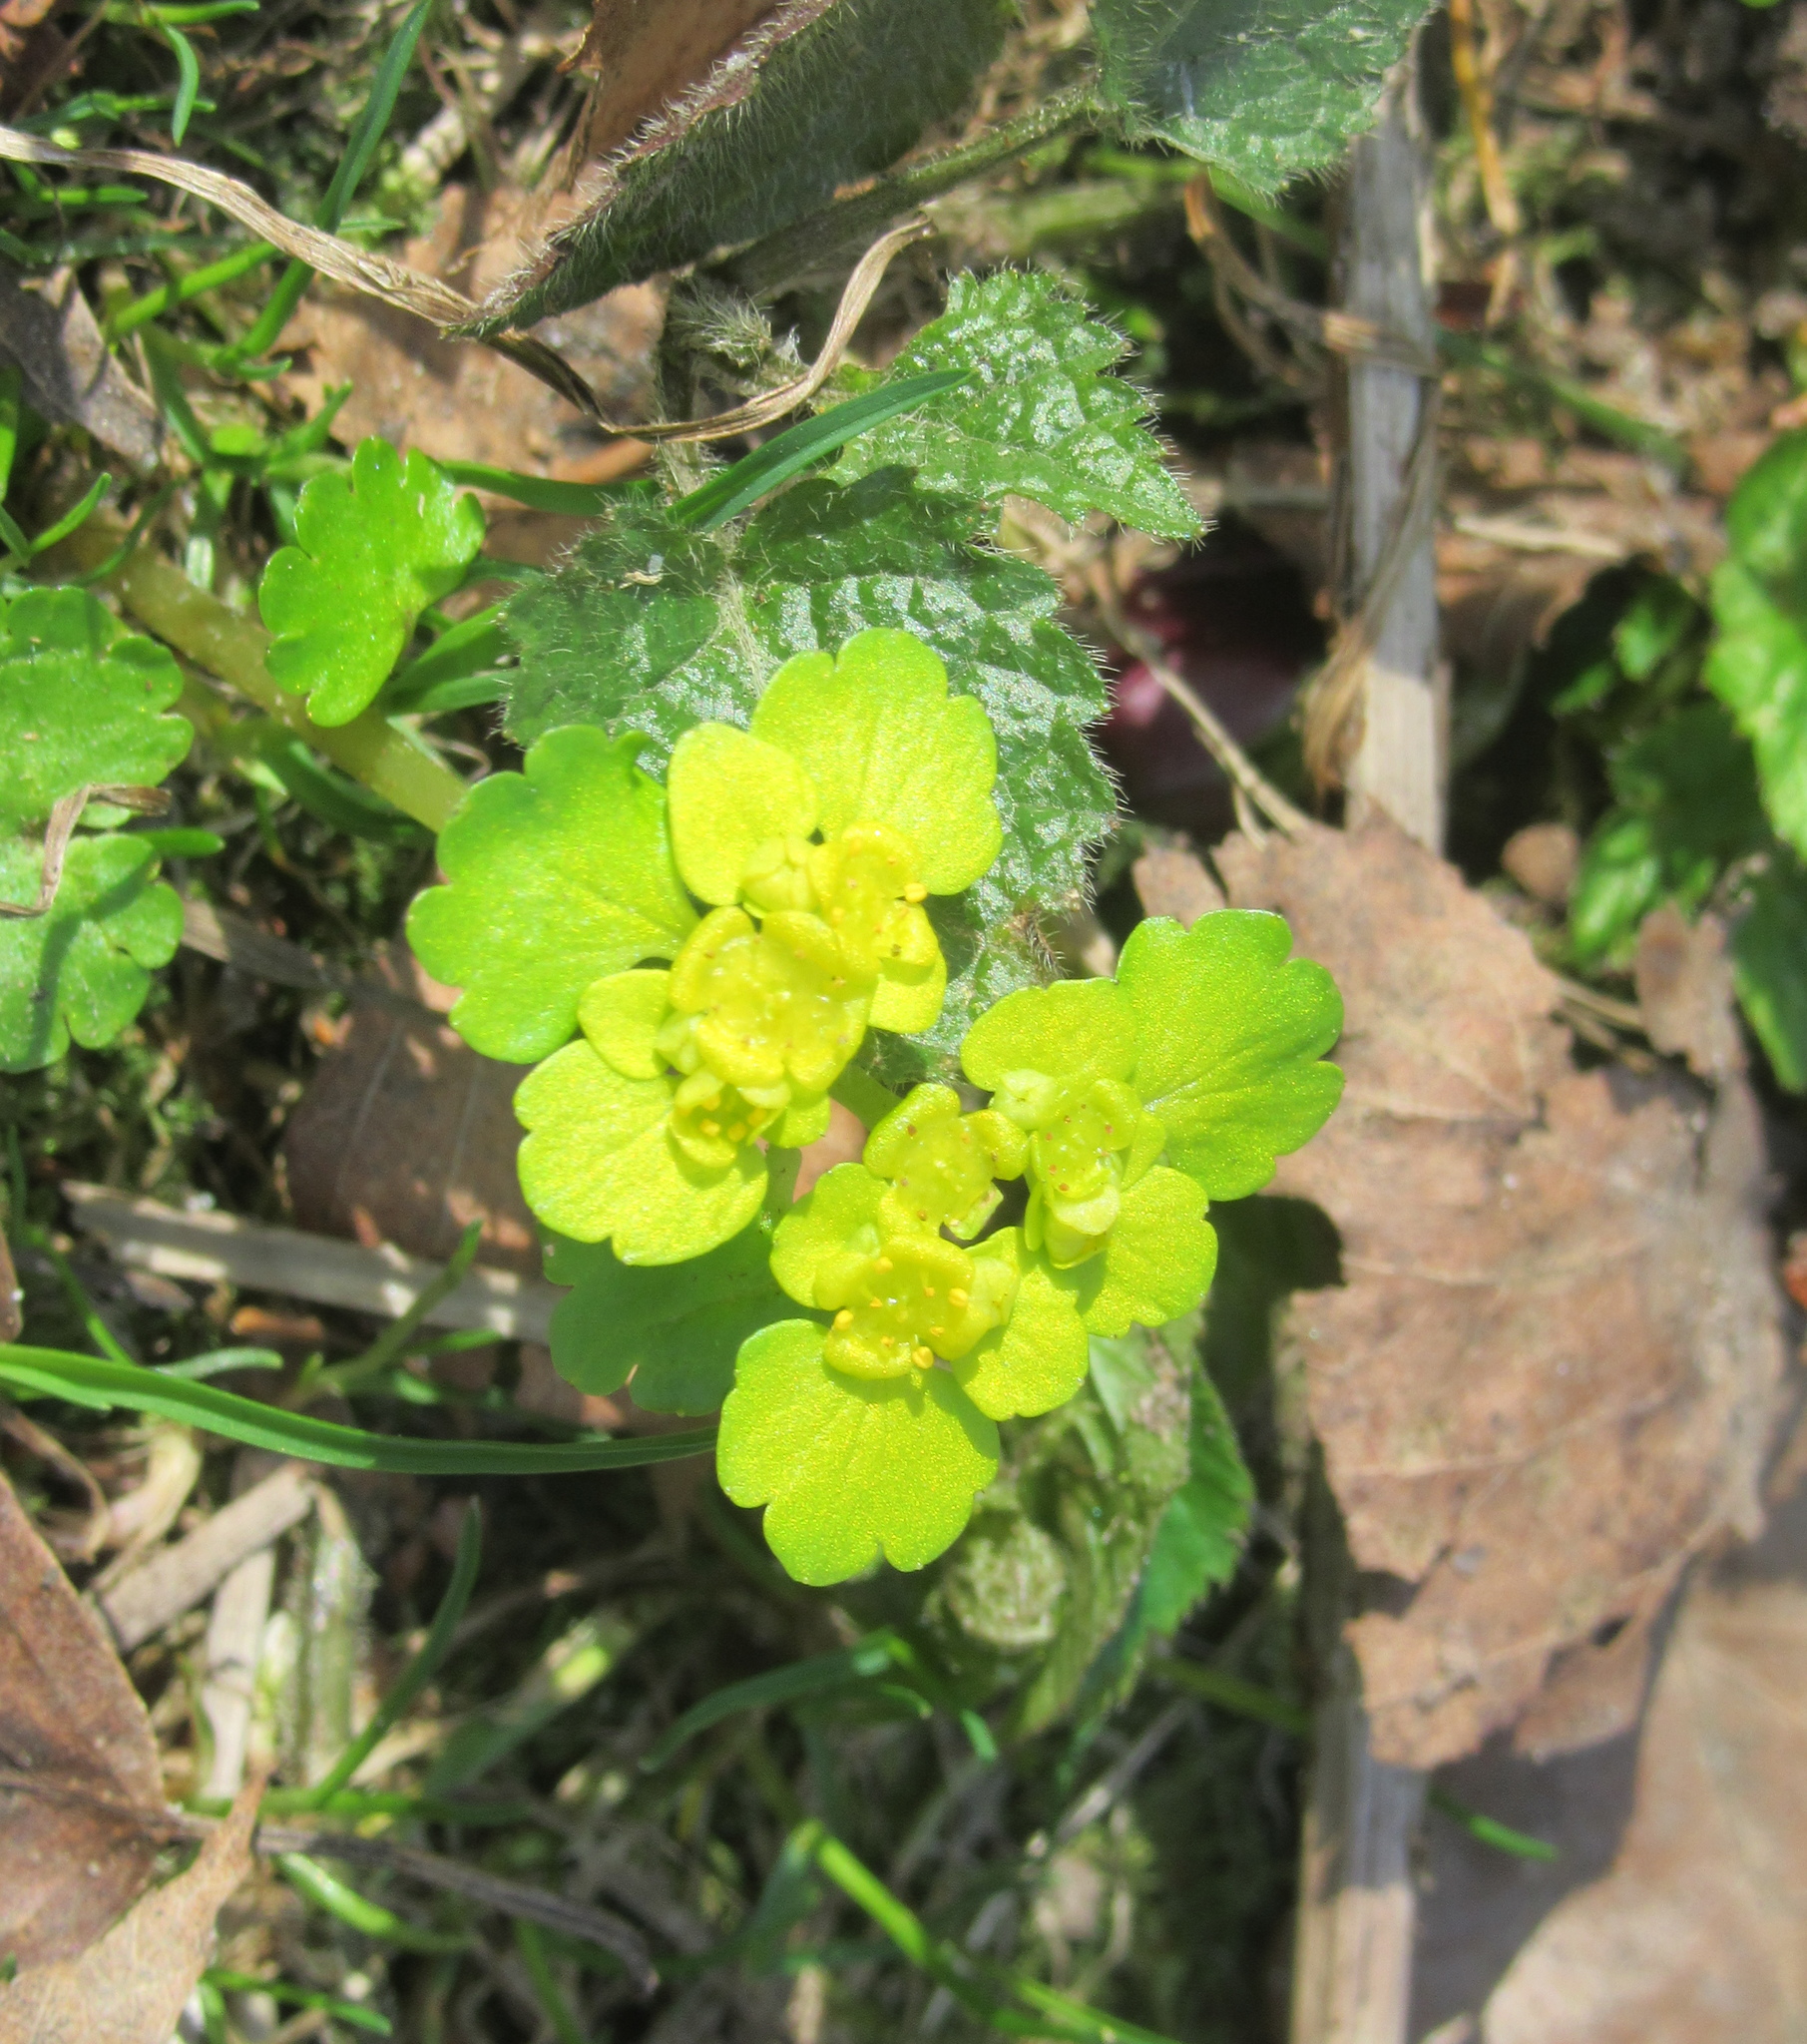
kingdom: Plantae
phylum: Tracheophyta
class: Magnoliopsida
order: Saxifragales
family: Saxifragaceae
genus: Chrysosplenium
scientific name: Chrysosplenium alternifolium
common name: Alternate-leaved golden-saxifrage
